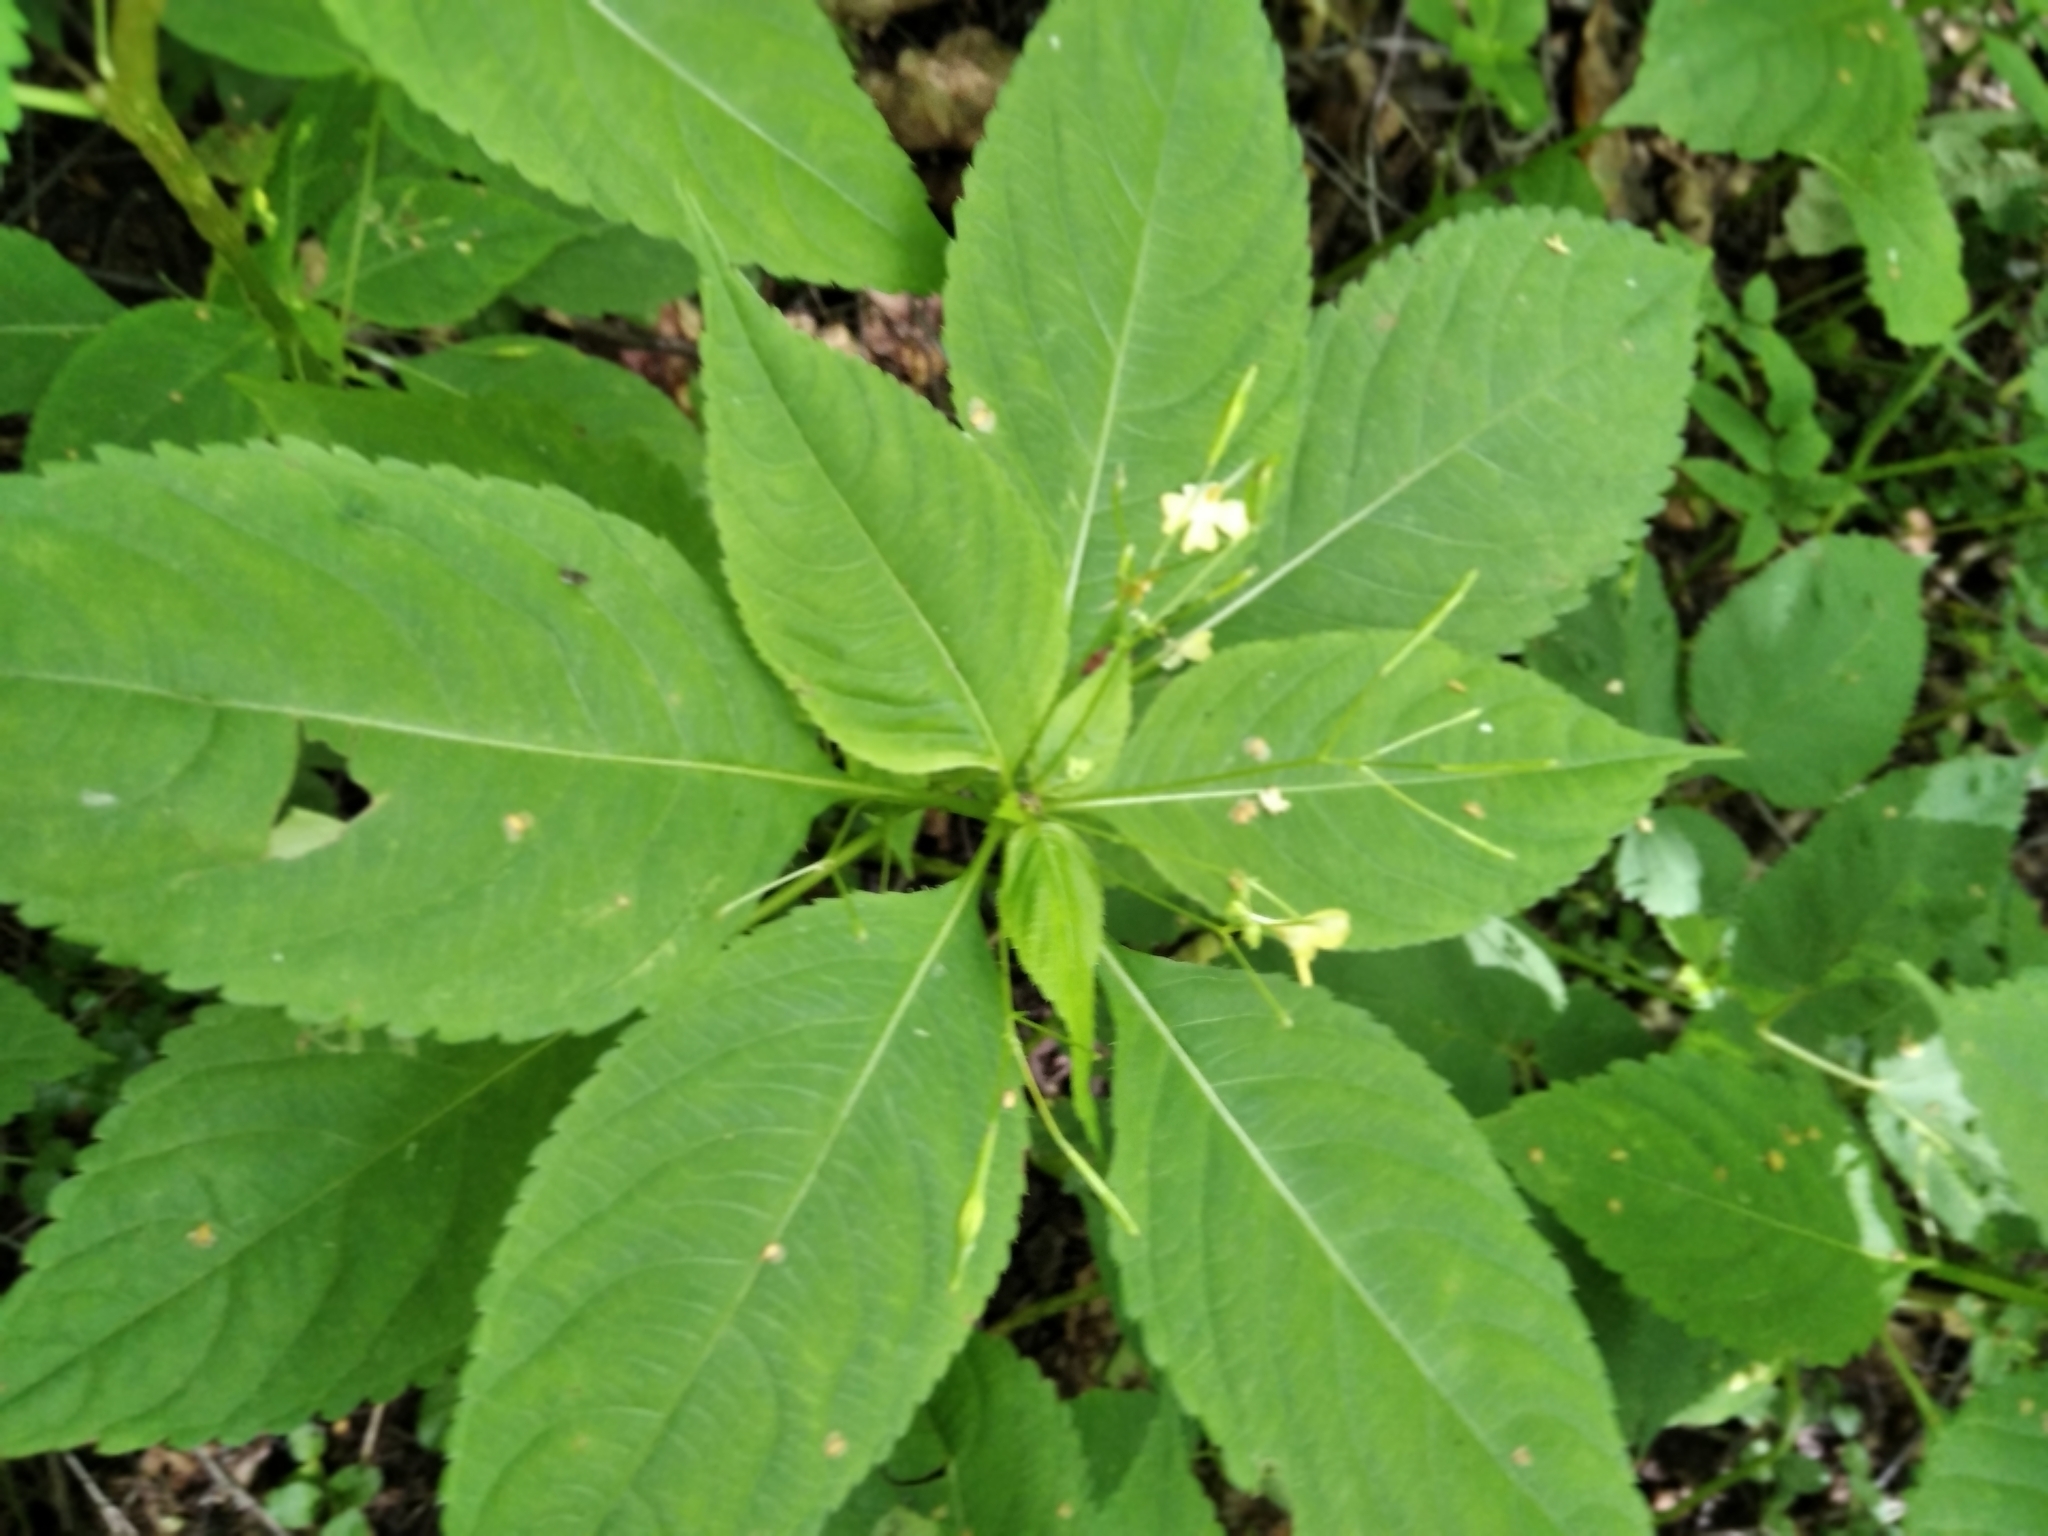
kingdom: Plantae
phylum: Tracheophyta
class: Magnoliopsida
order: Ericales
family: Balsaminaceae
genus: Impatiens
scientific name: Impatiens parviflora
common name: Small balsam
